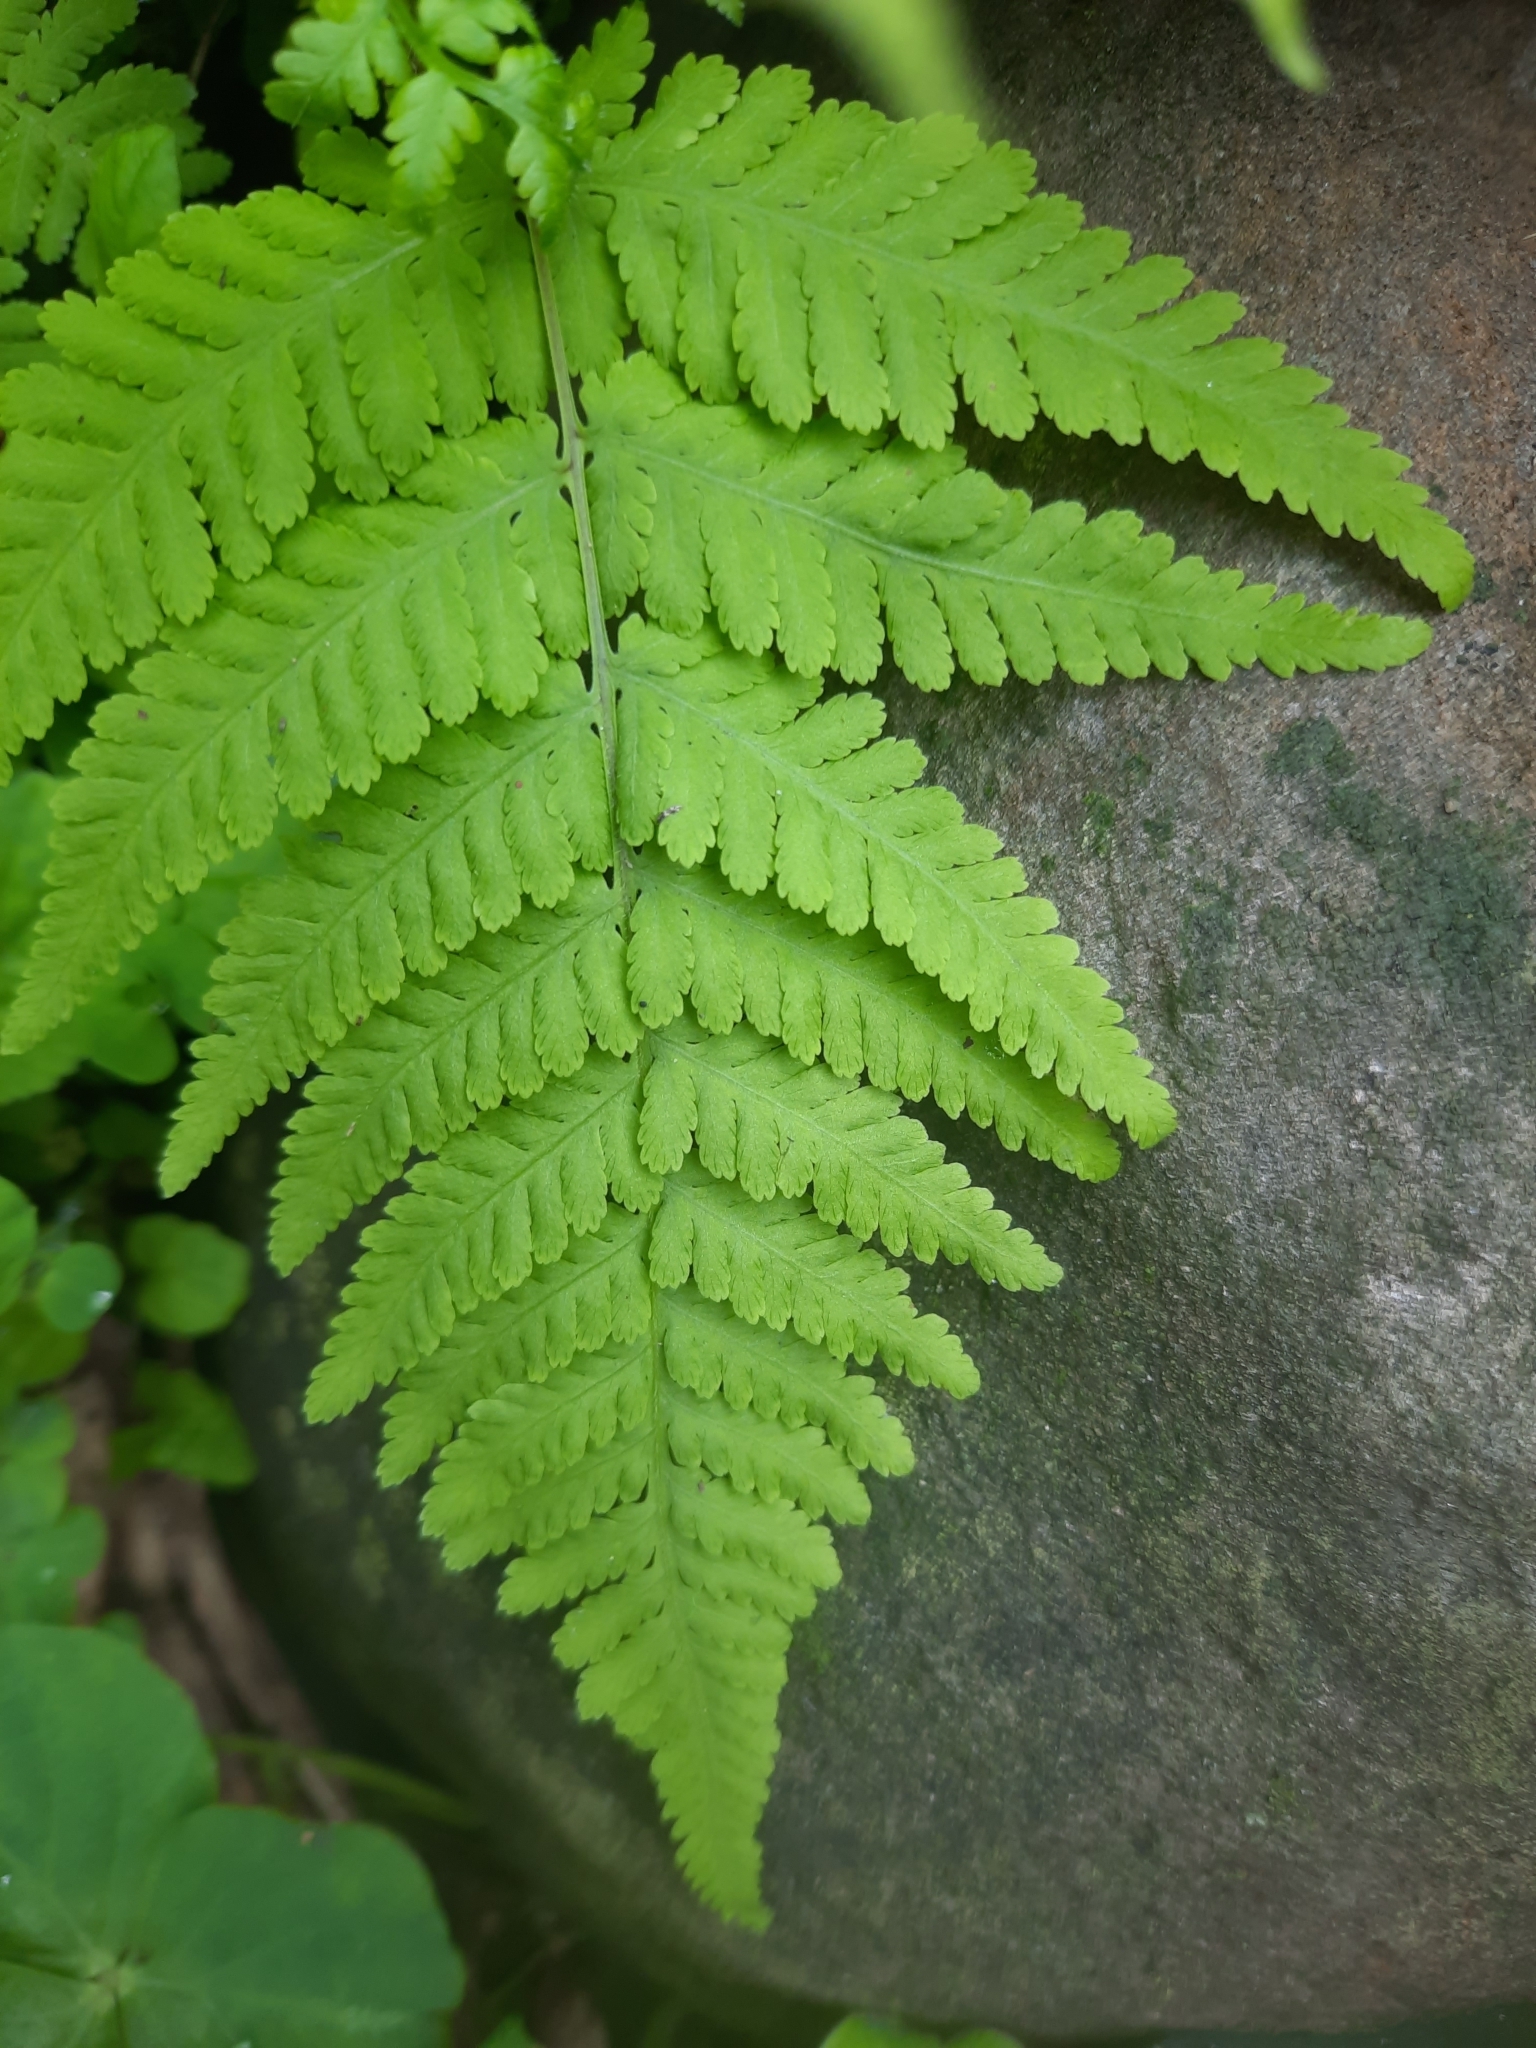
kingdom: Plantae
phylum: Tracheophyta
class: Polypodiopsida
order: Polypodiales
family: Thelypteridaceae
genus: Macrothelypteris
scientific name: Macrothelypteris torresiana
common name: Swordfern
